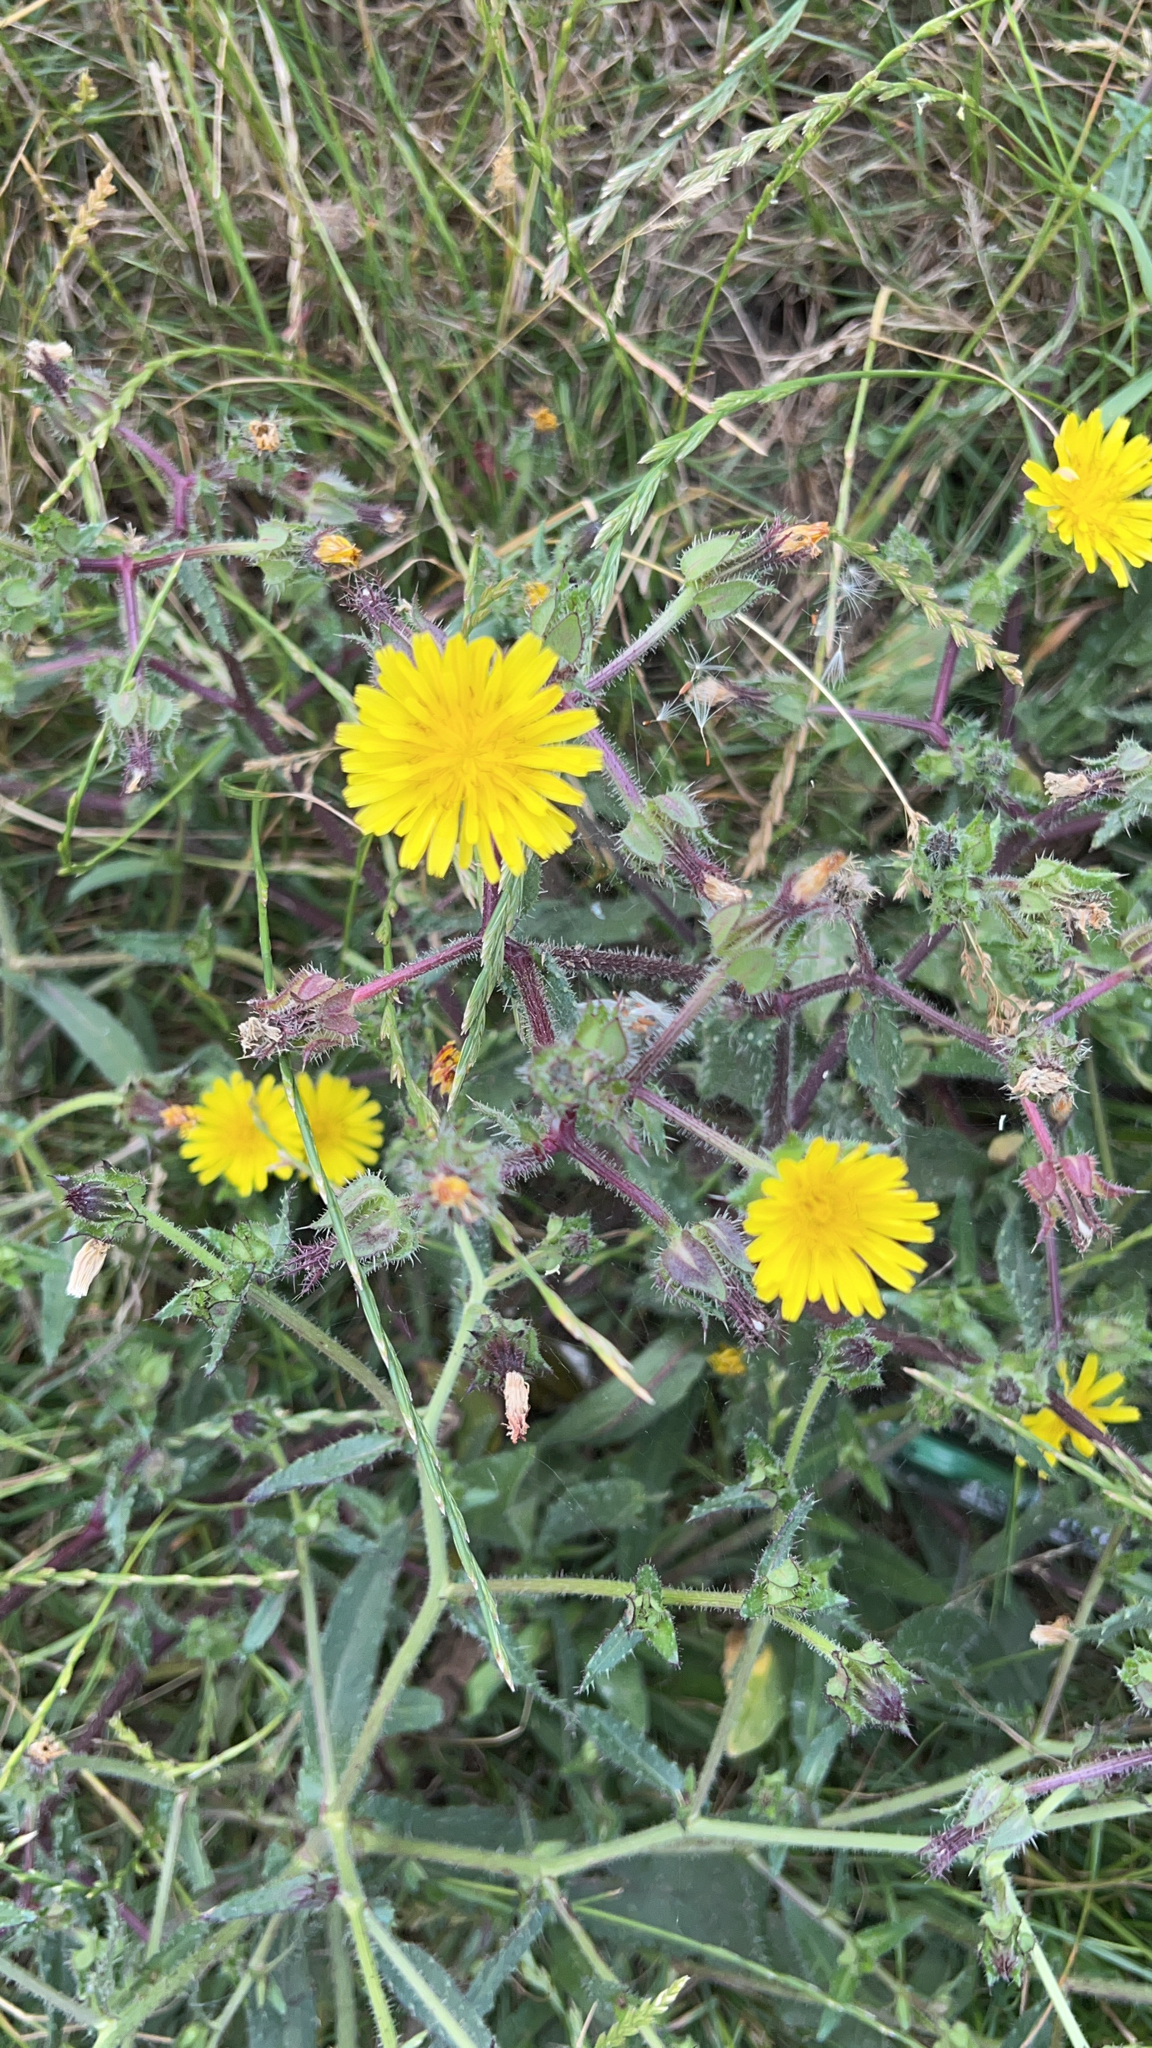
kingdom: Plantae
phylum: Tracheophyta
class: Magnoliopsida
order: Asterales
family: Asteraceae
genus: Helminthotheca
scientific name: Helminthotheca echioides
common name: Ox-tongue
